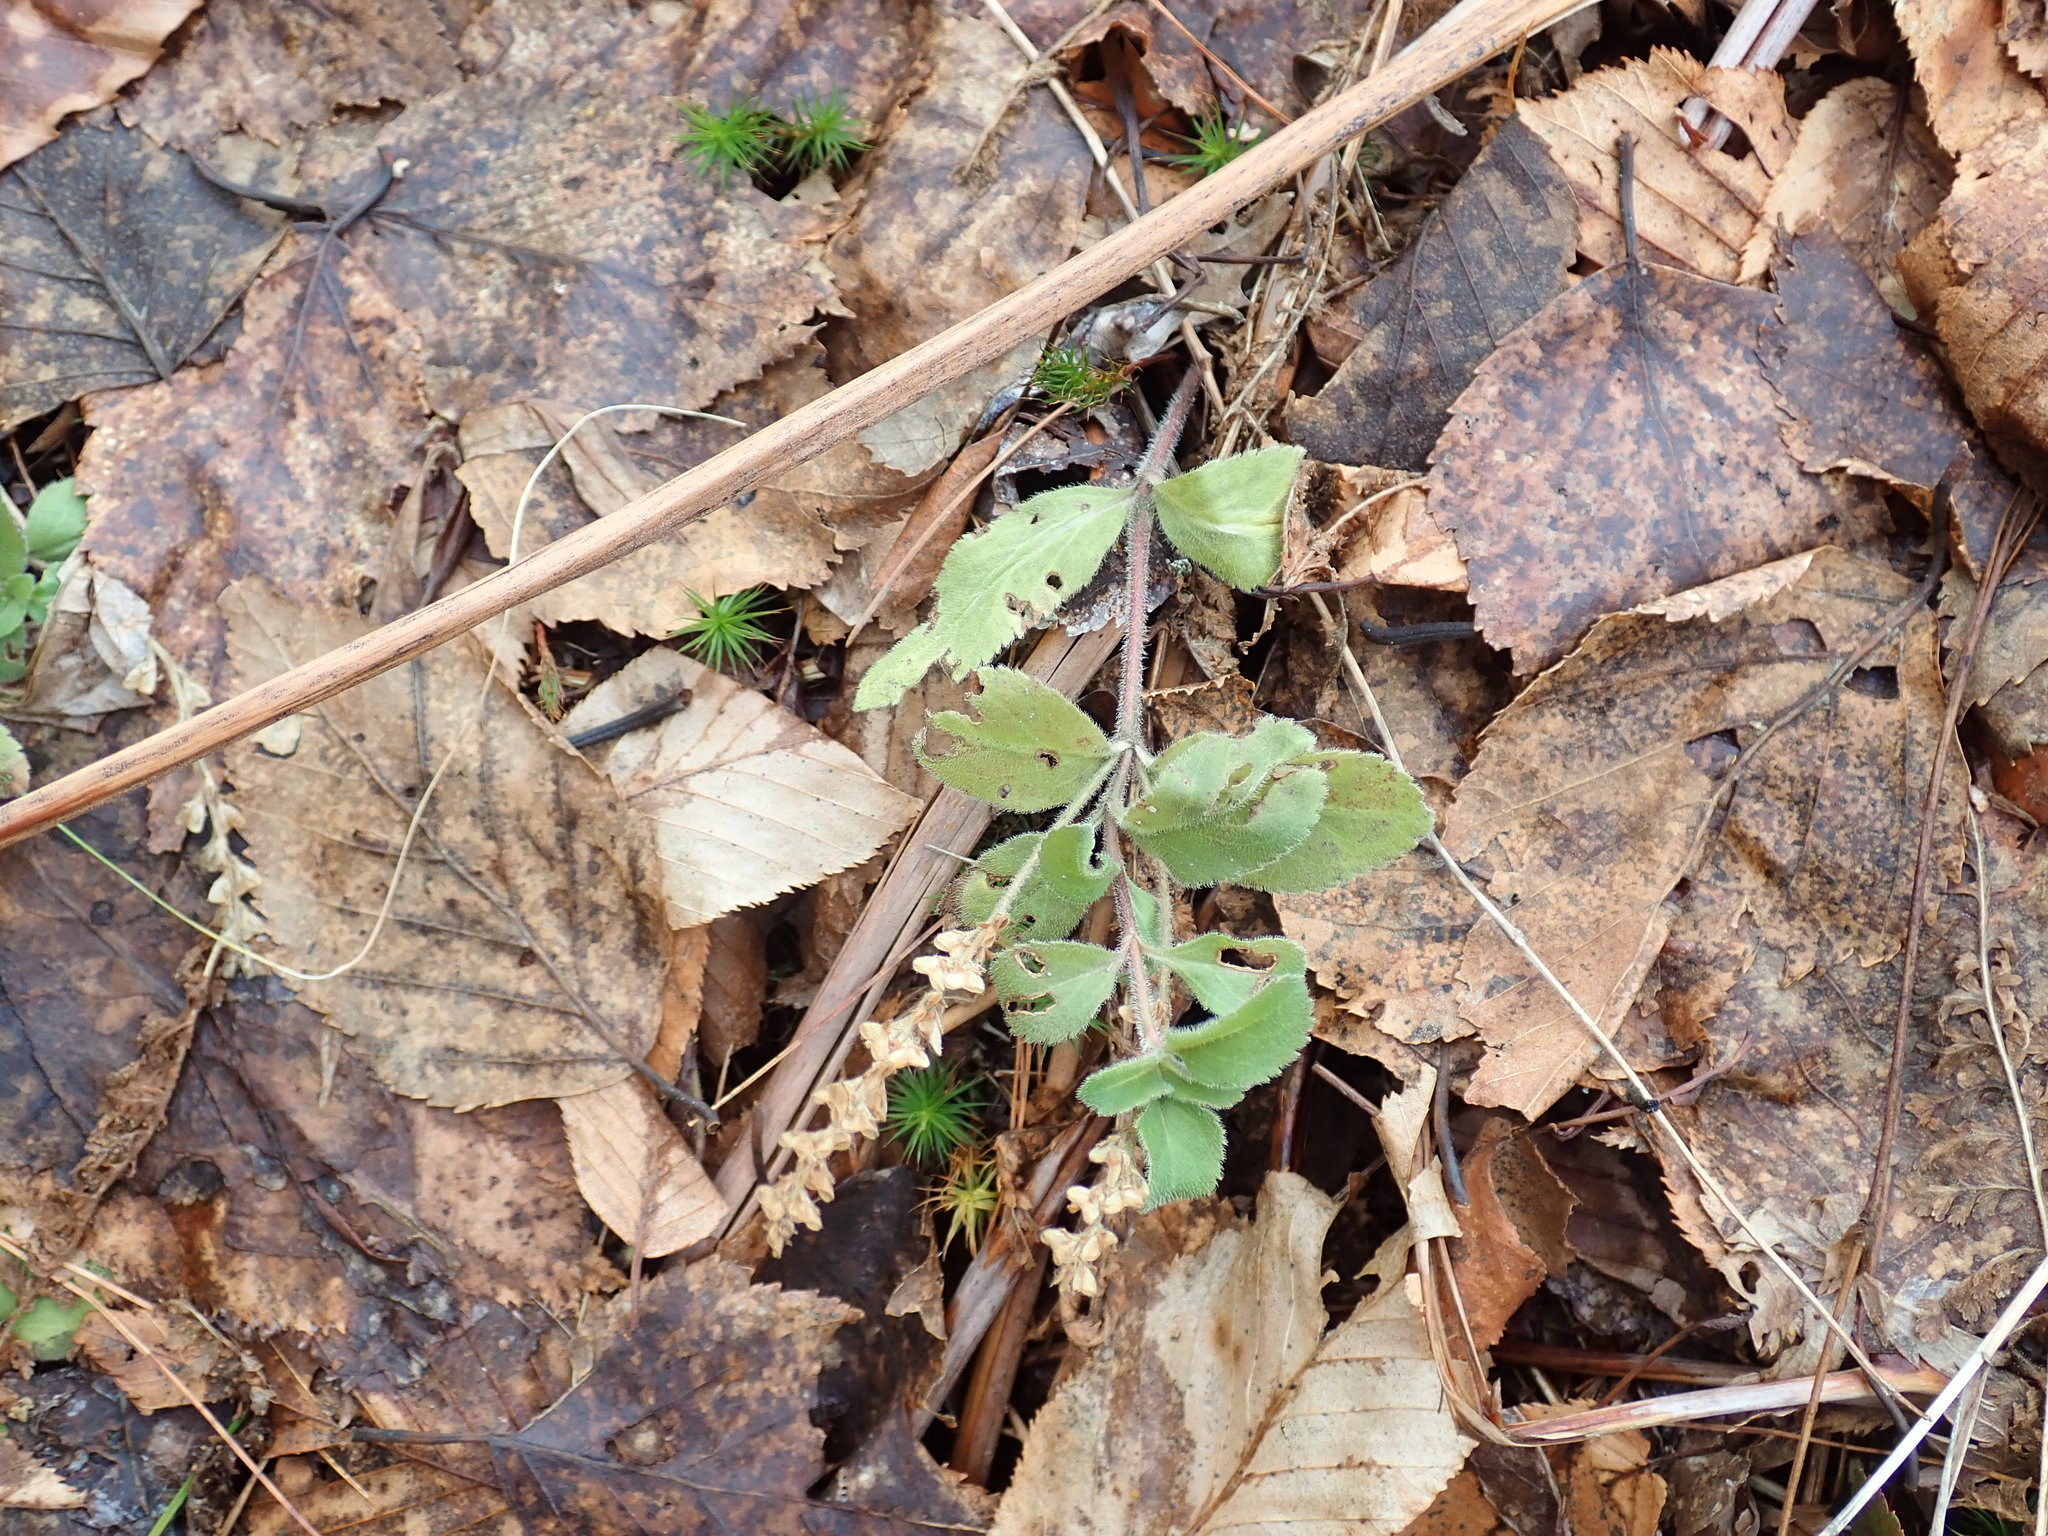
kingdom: Plantae
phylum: Tracheophyta
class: Magnoliopsida
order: Lamiales
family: Plantaginaceae
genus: Veronica
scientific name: Veronica officinalis
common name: Common speedwell
